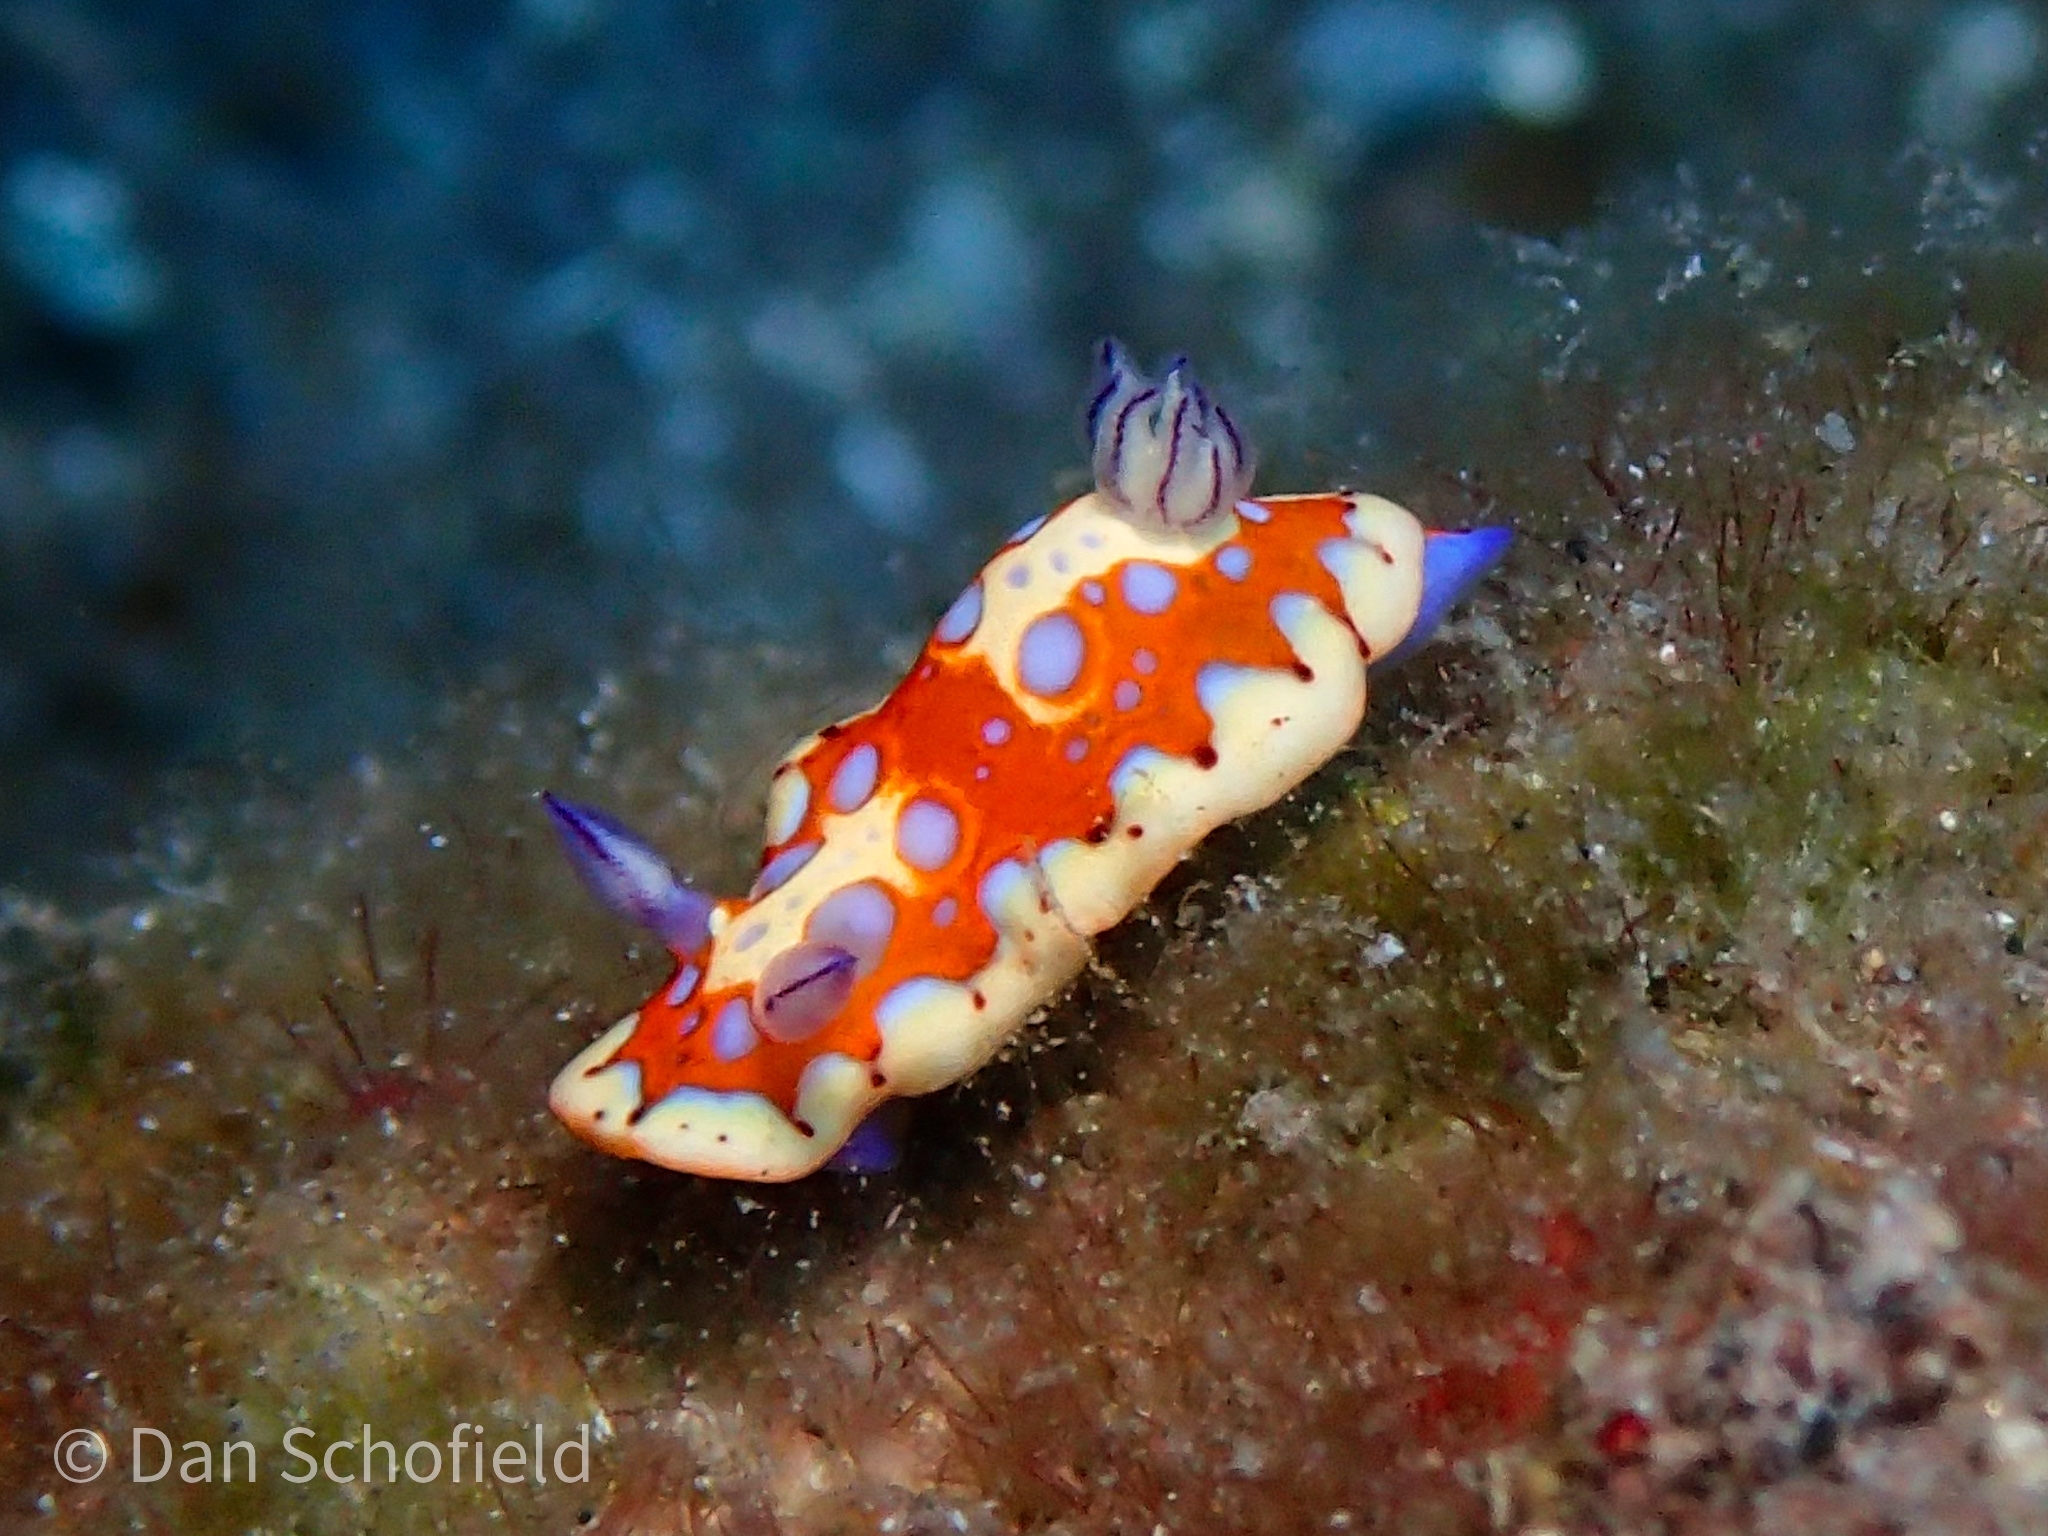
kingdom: Animalia
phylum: Mollusca
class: Gastropoda
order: Nudibranchia
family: Chromodorididae
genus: Felimida
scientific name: Felimida binza
